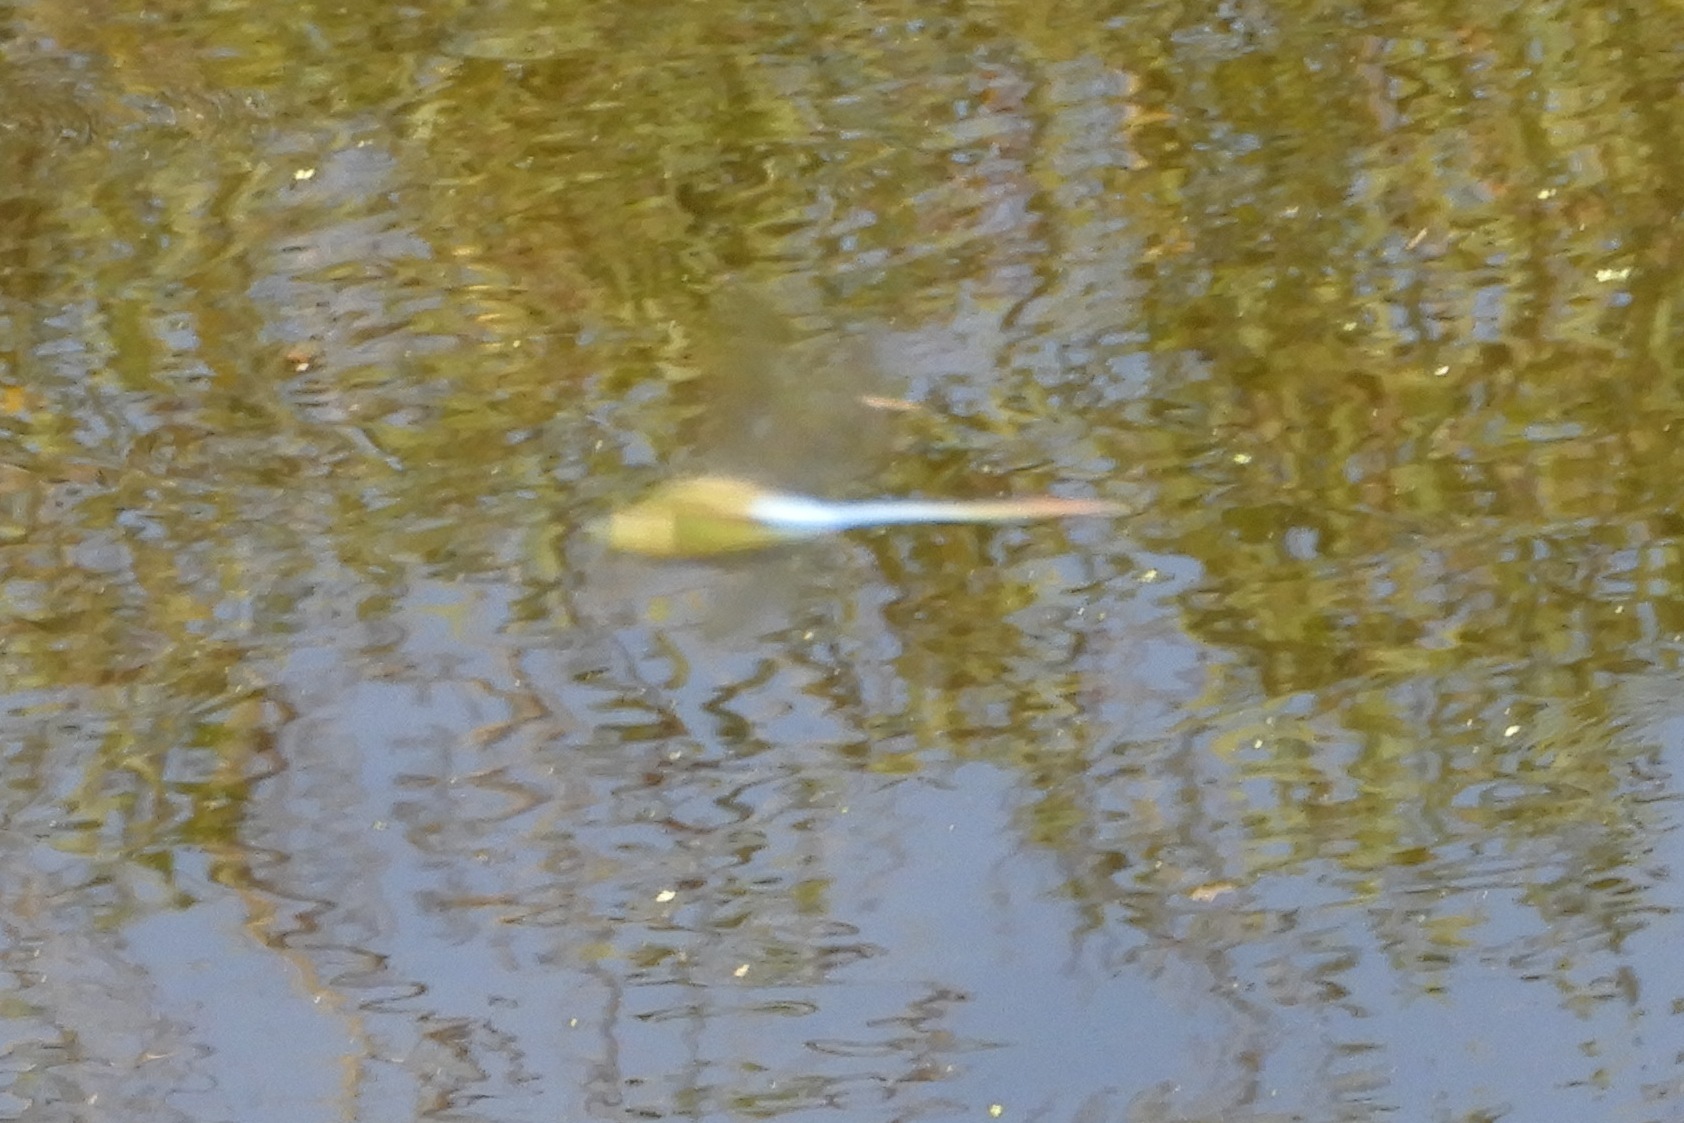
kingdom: Animalia
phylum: Arthropoda
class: Insecta
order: Odonata
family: Aeshnidae
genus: Anax
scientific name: Anax junius
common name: Common green darner
